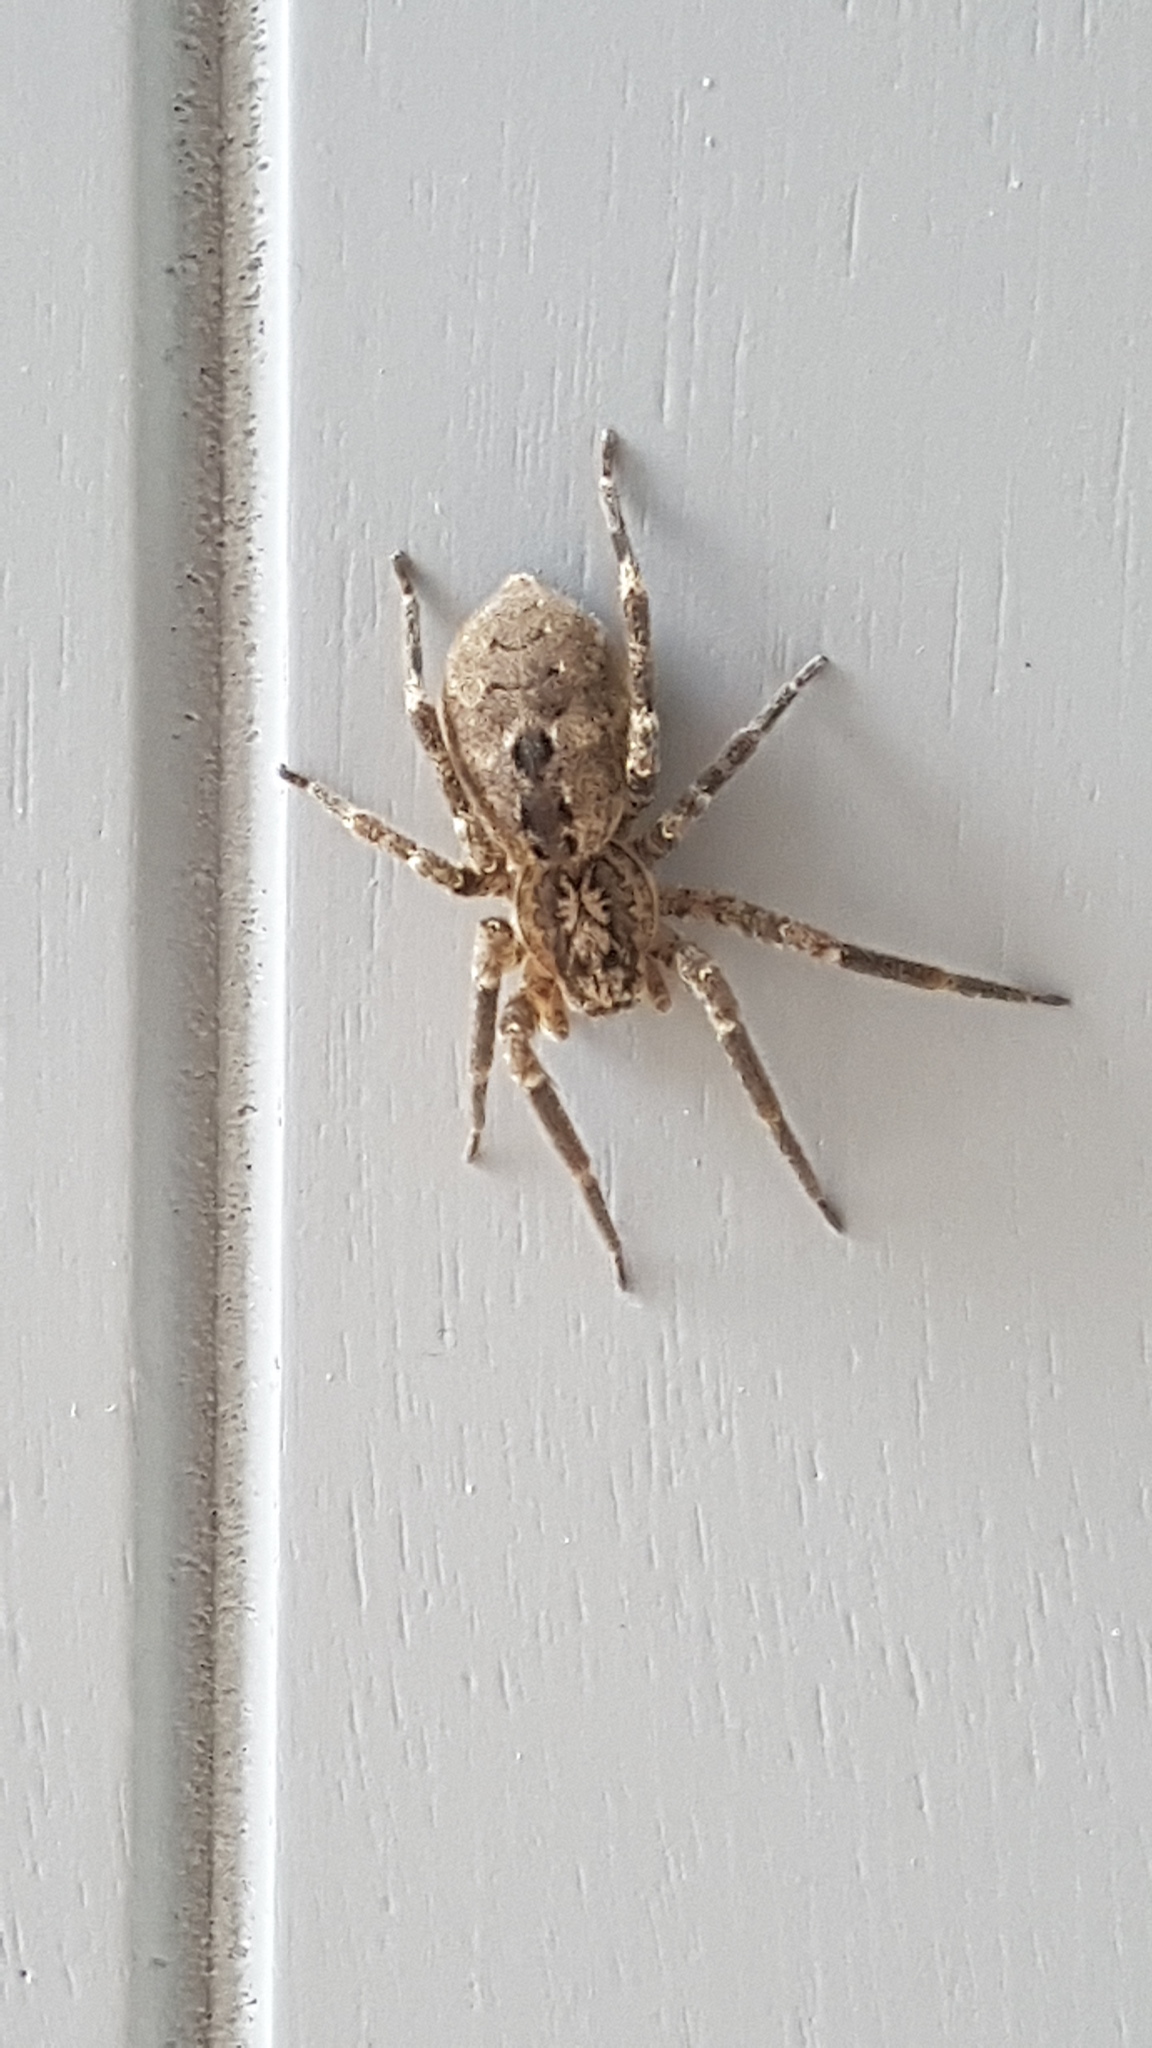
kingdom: Animalia
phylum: Arthropoda
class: Arachnida
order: Araneae
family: Zoropsidae
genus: Zoropsis
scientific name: Zoropsis spinimana
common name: Zoropsid spider
